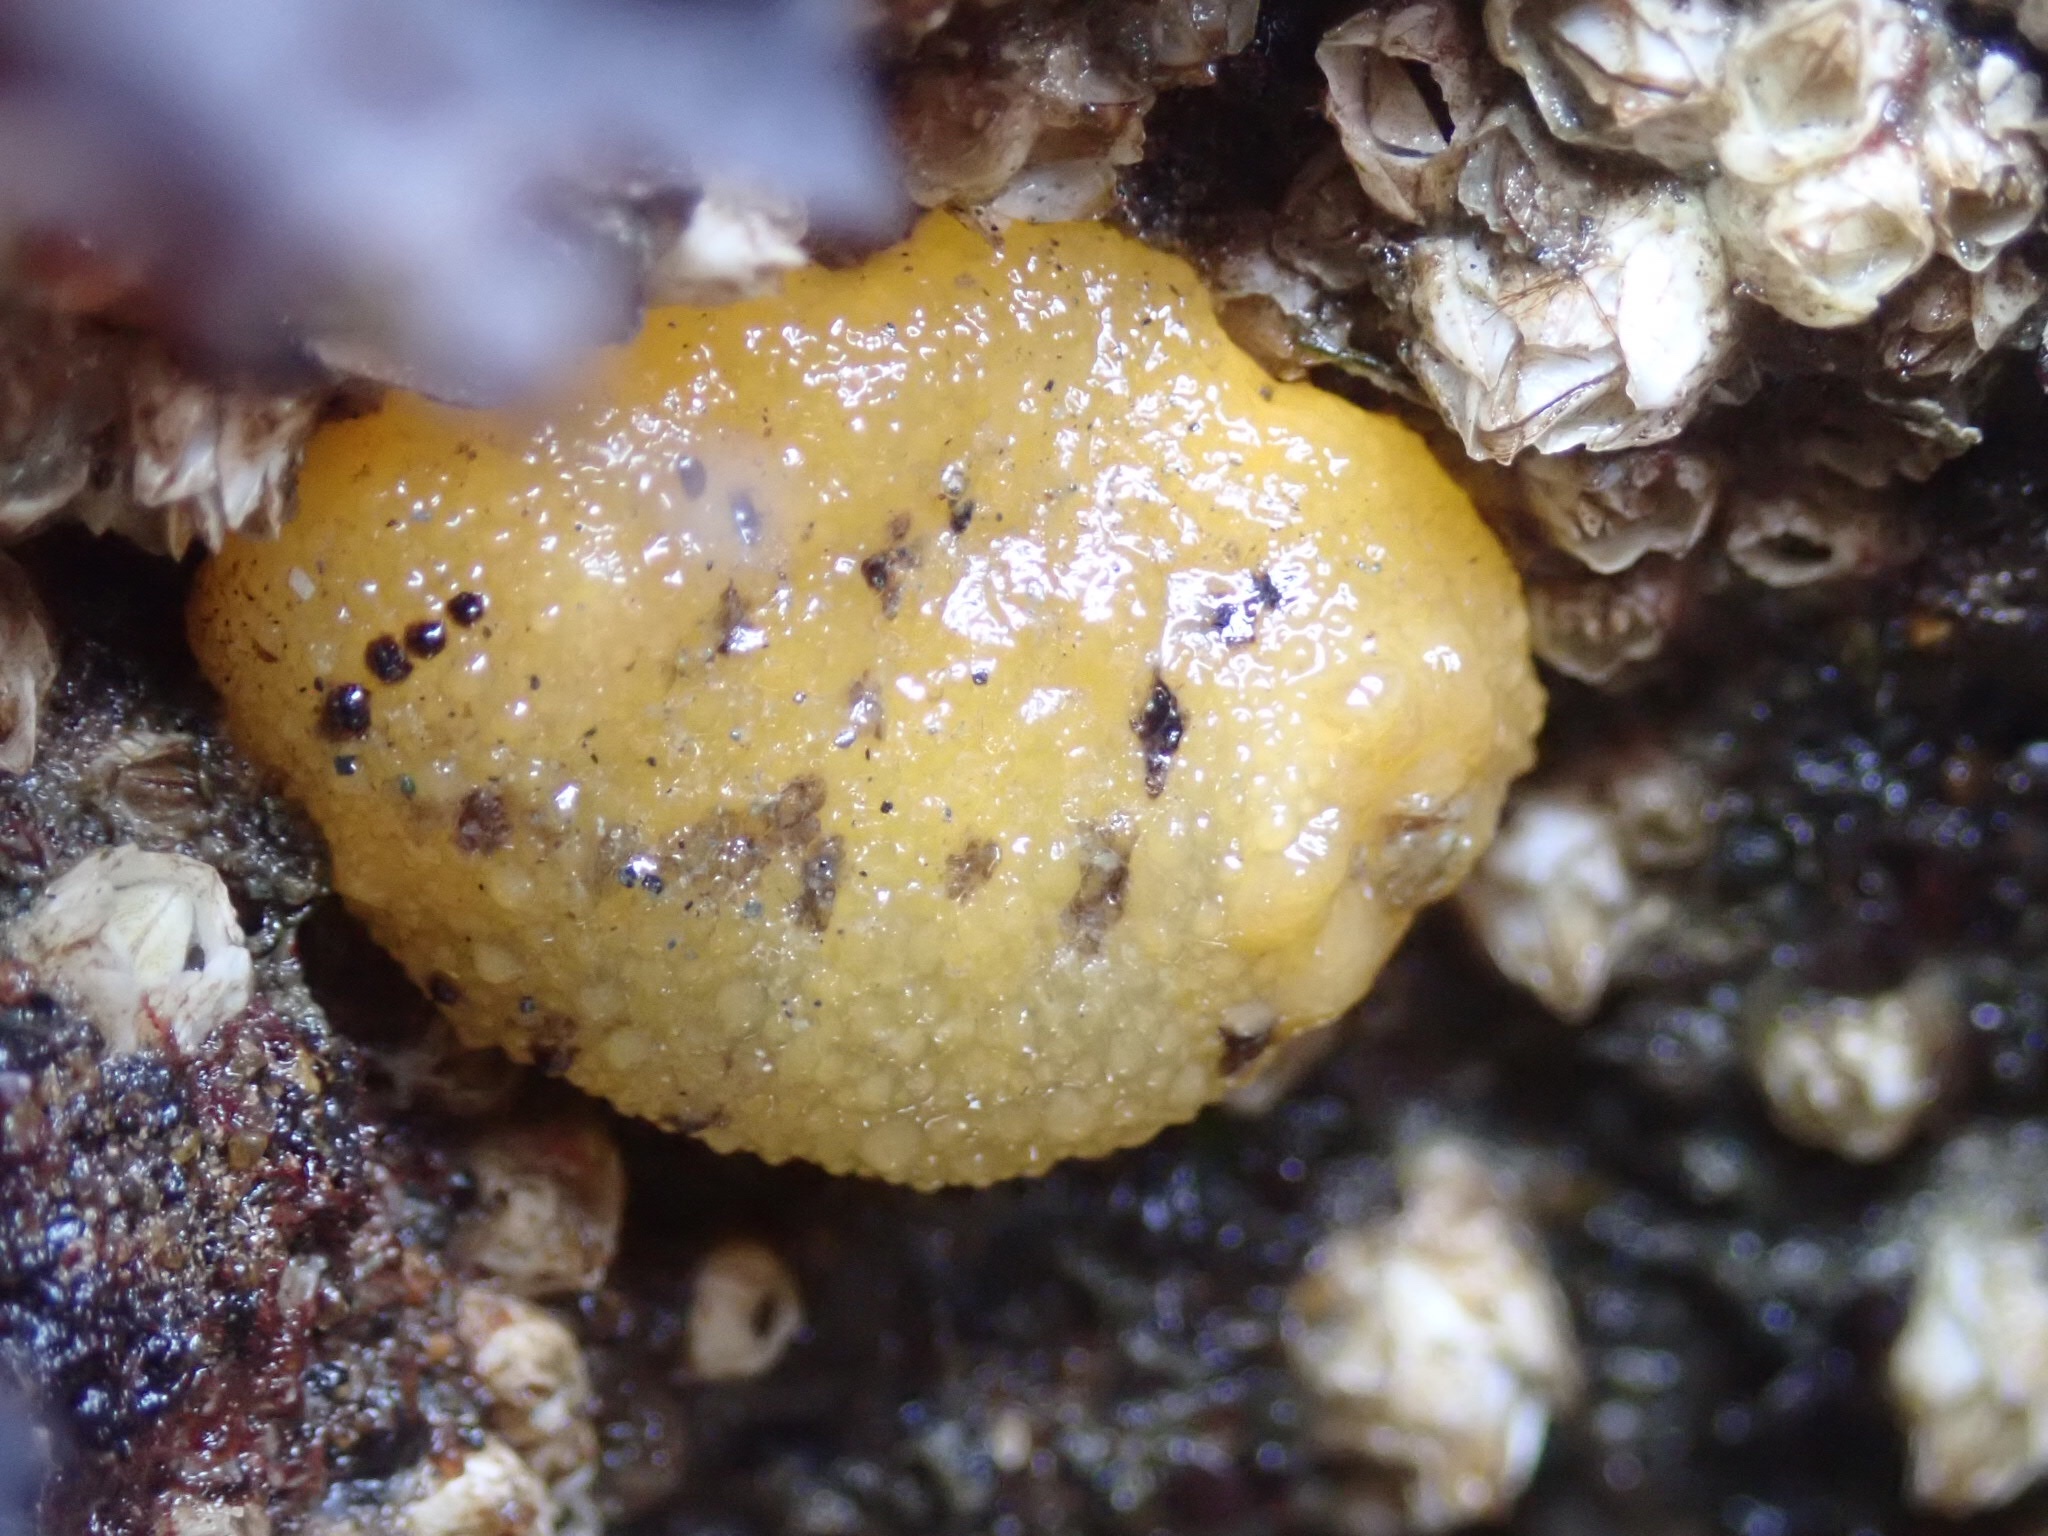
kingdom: Animalia
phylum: Mollusca
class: Gastropoda
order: Nudibranchia
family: Dorididae
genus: Doris
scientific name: Doris montereyensis
